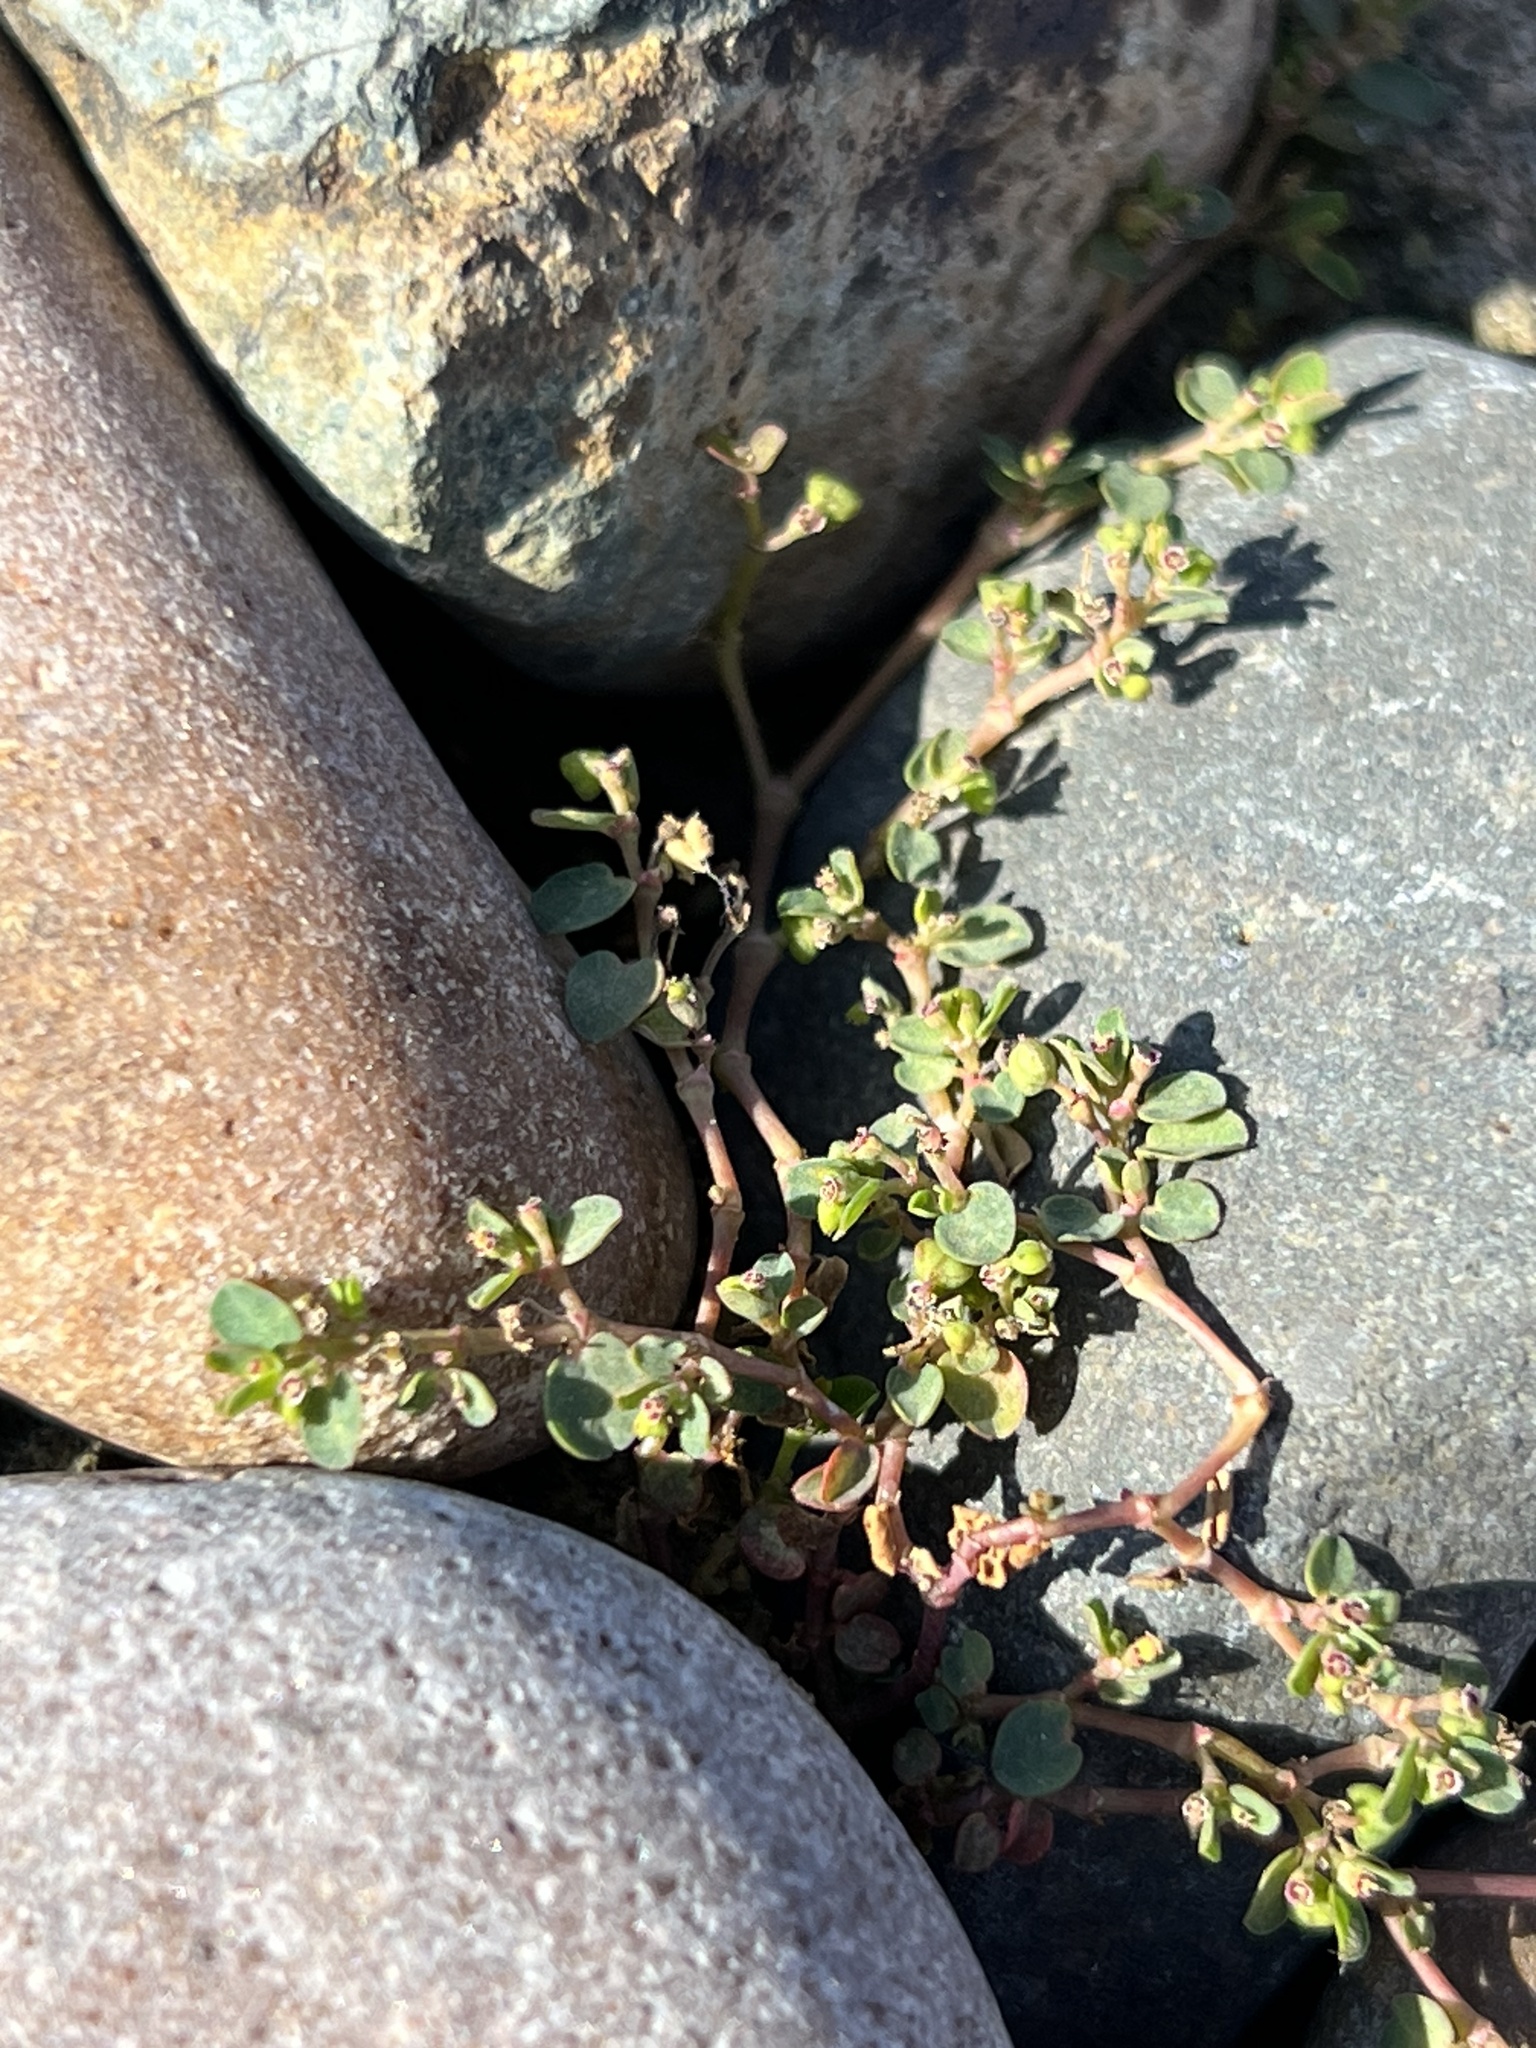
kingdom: Plantae
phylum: Tracheophyta
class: Magnoliopsida
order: Malpighiales
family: Euphorbiaceae
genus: Euphorbia
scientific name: Euphorbia serpens
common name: Matted sandmat
